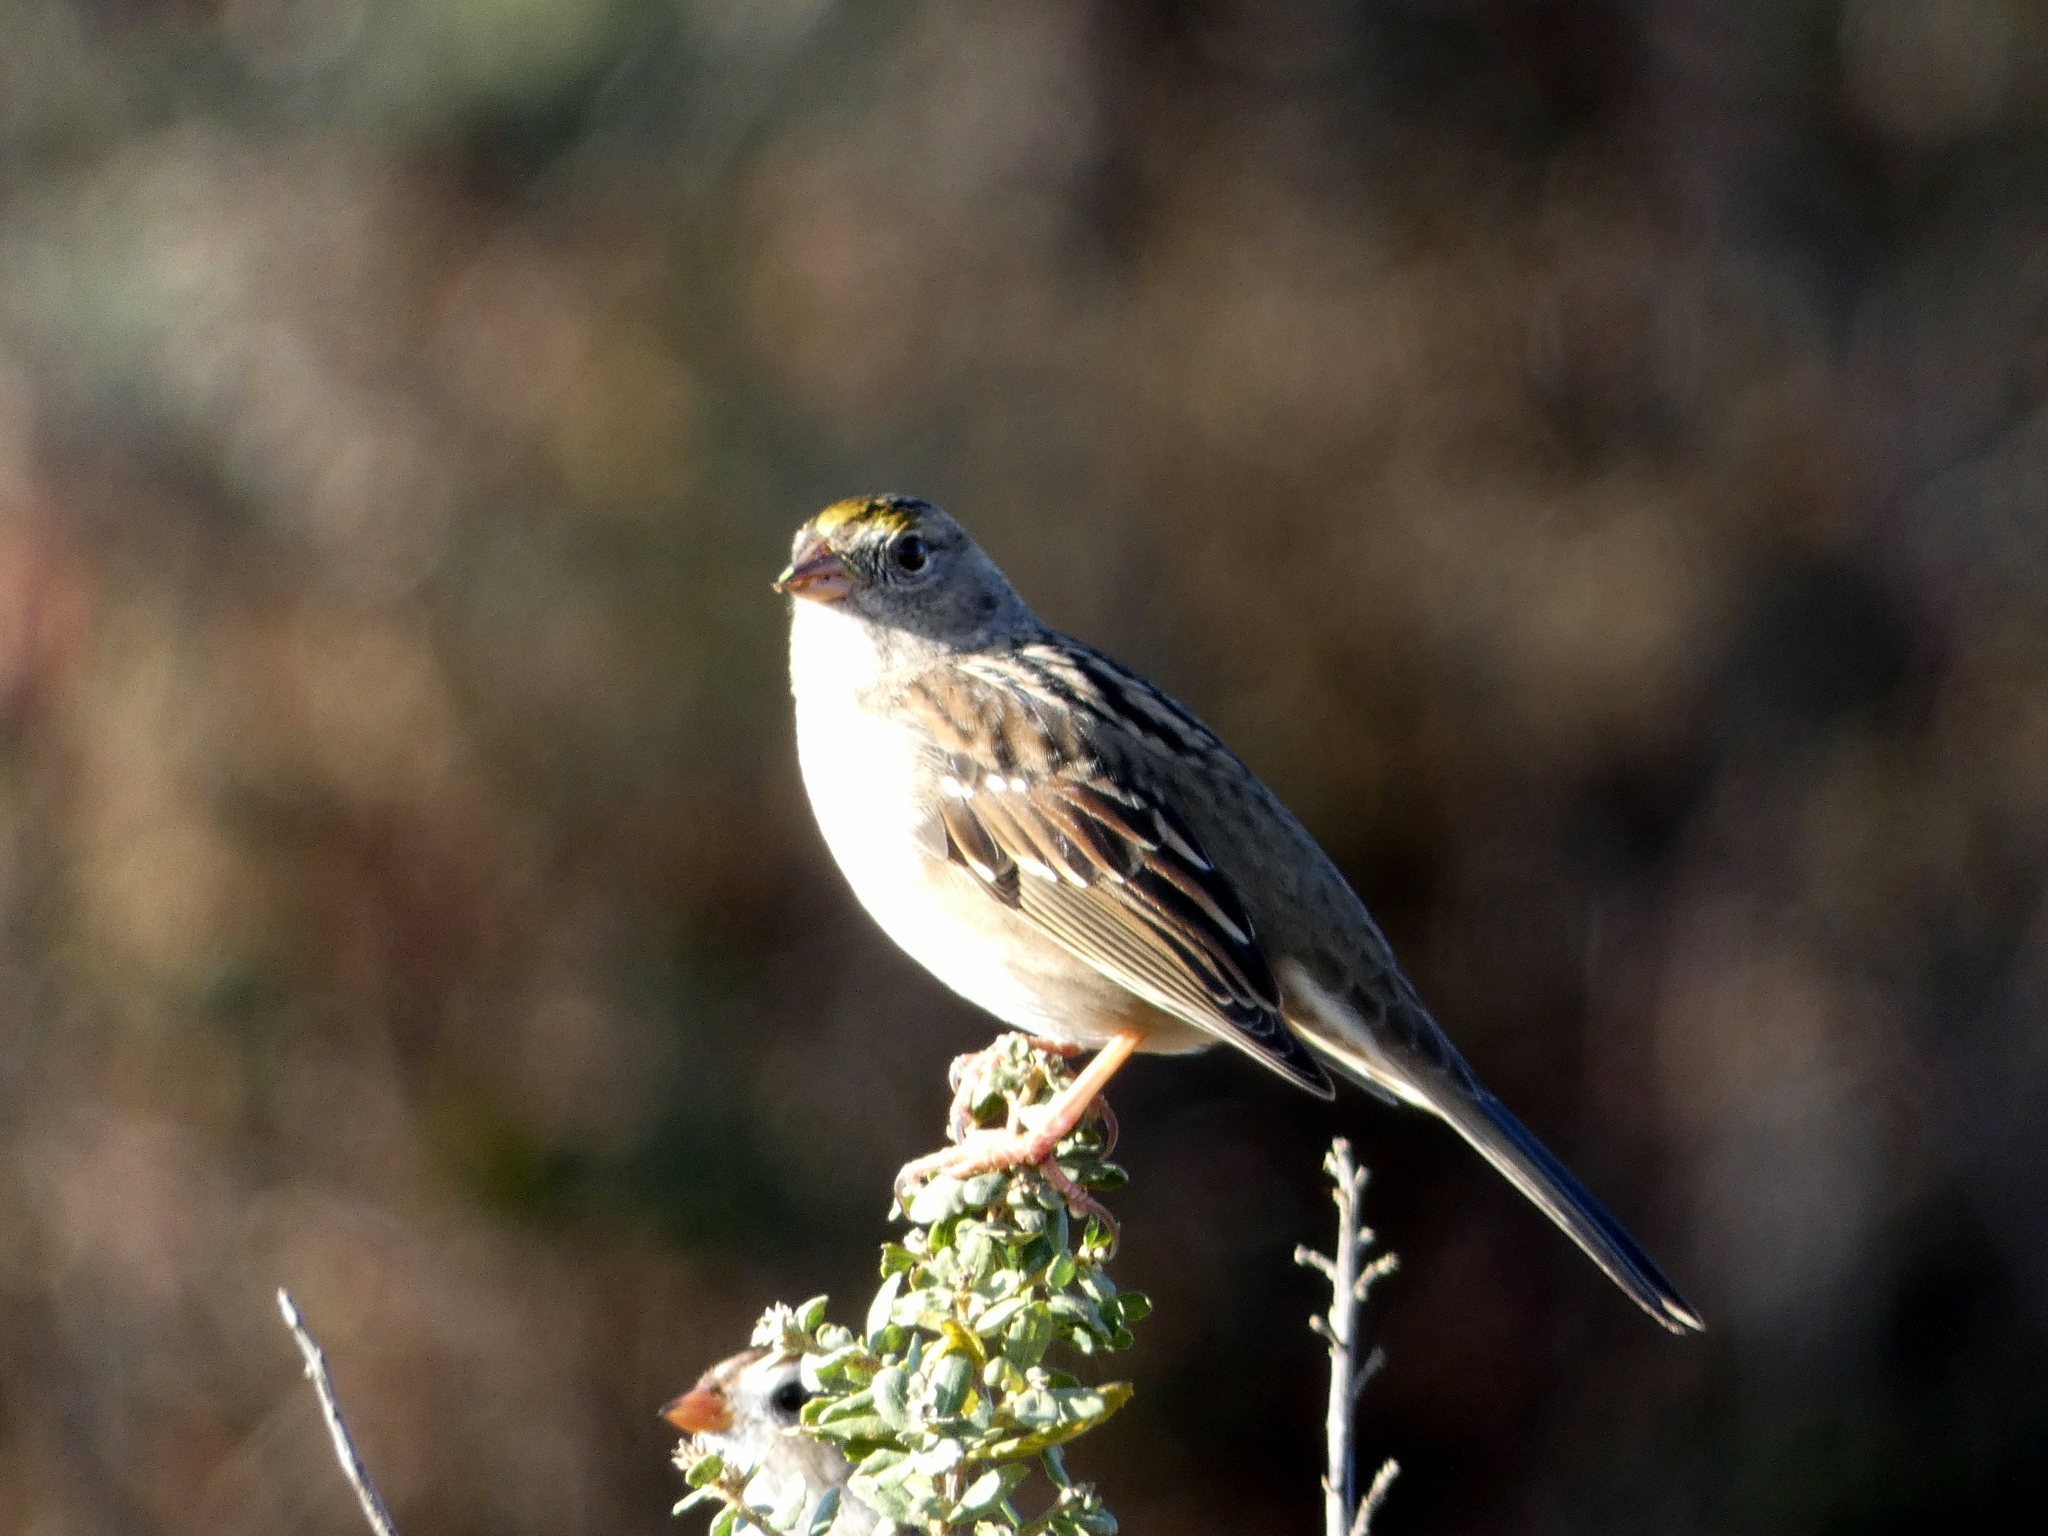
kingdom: Animalia
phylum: Chordata
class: Aves
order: Passeriformes
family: Passerellidae
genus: Zonotrichia
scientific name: Zonotrichia atricapilla
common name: Golden-crowned sparrow
